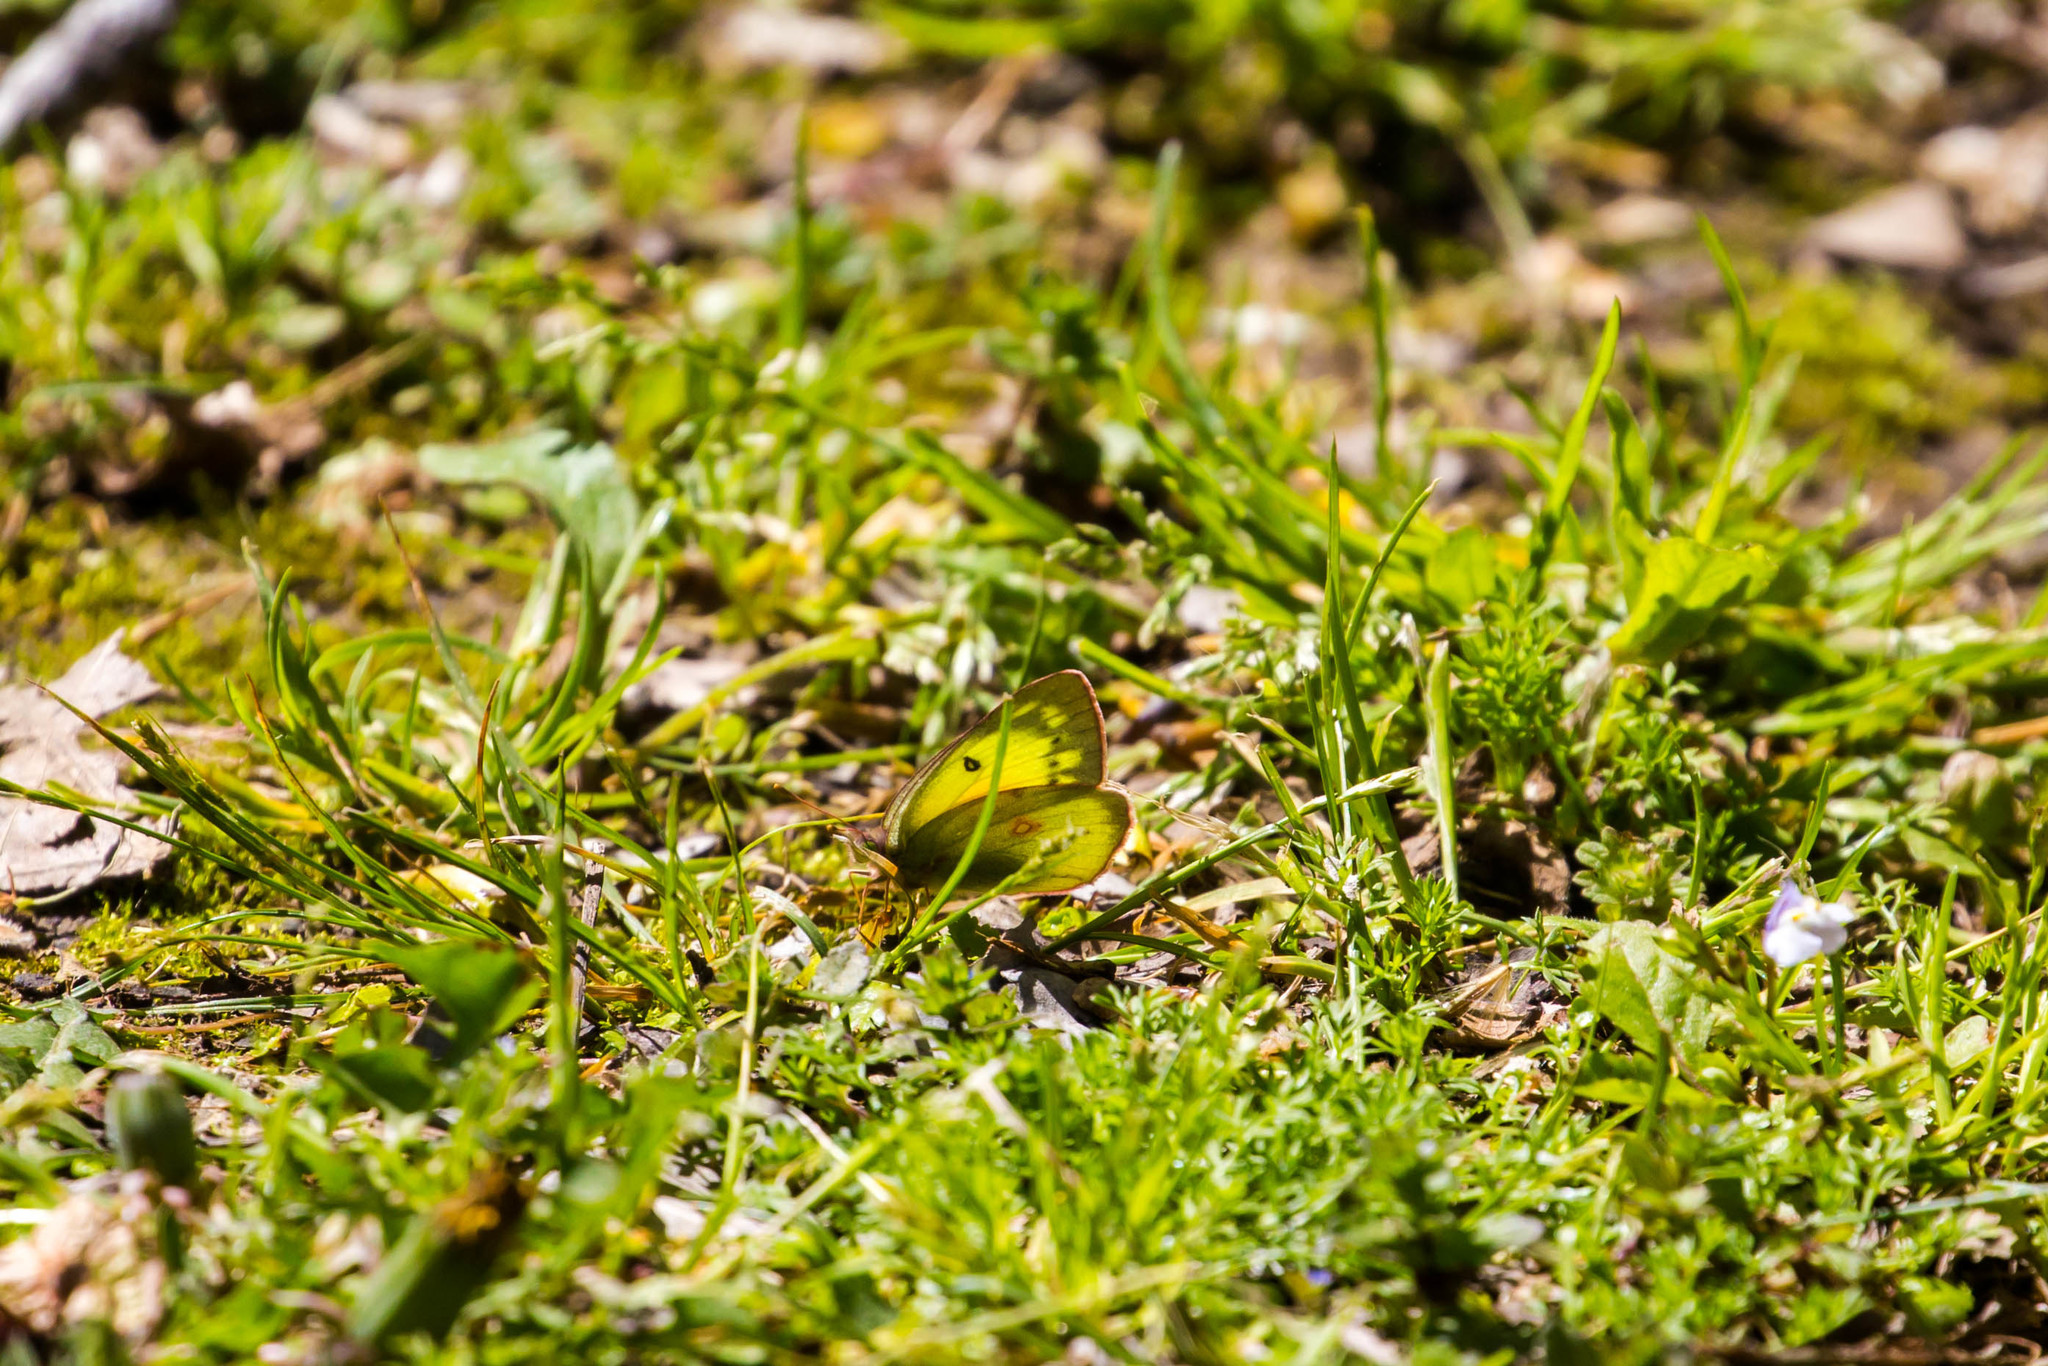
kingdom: Animalia
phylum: Arthropoda
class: Insecta
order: Lepidoptera
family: Pieridae
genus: Colias
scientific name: Colias eurytheme
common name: Alfalfa butterfly
